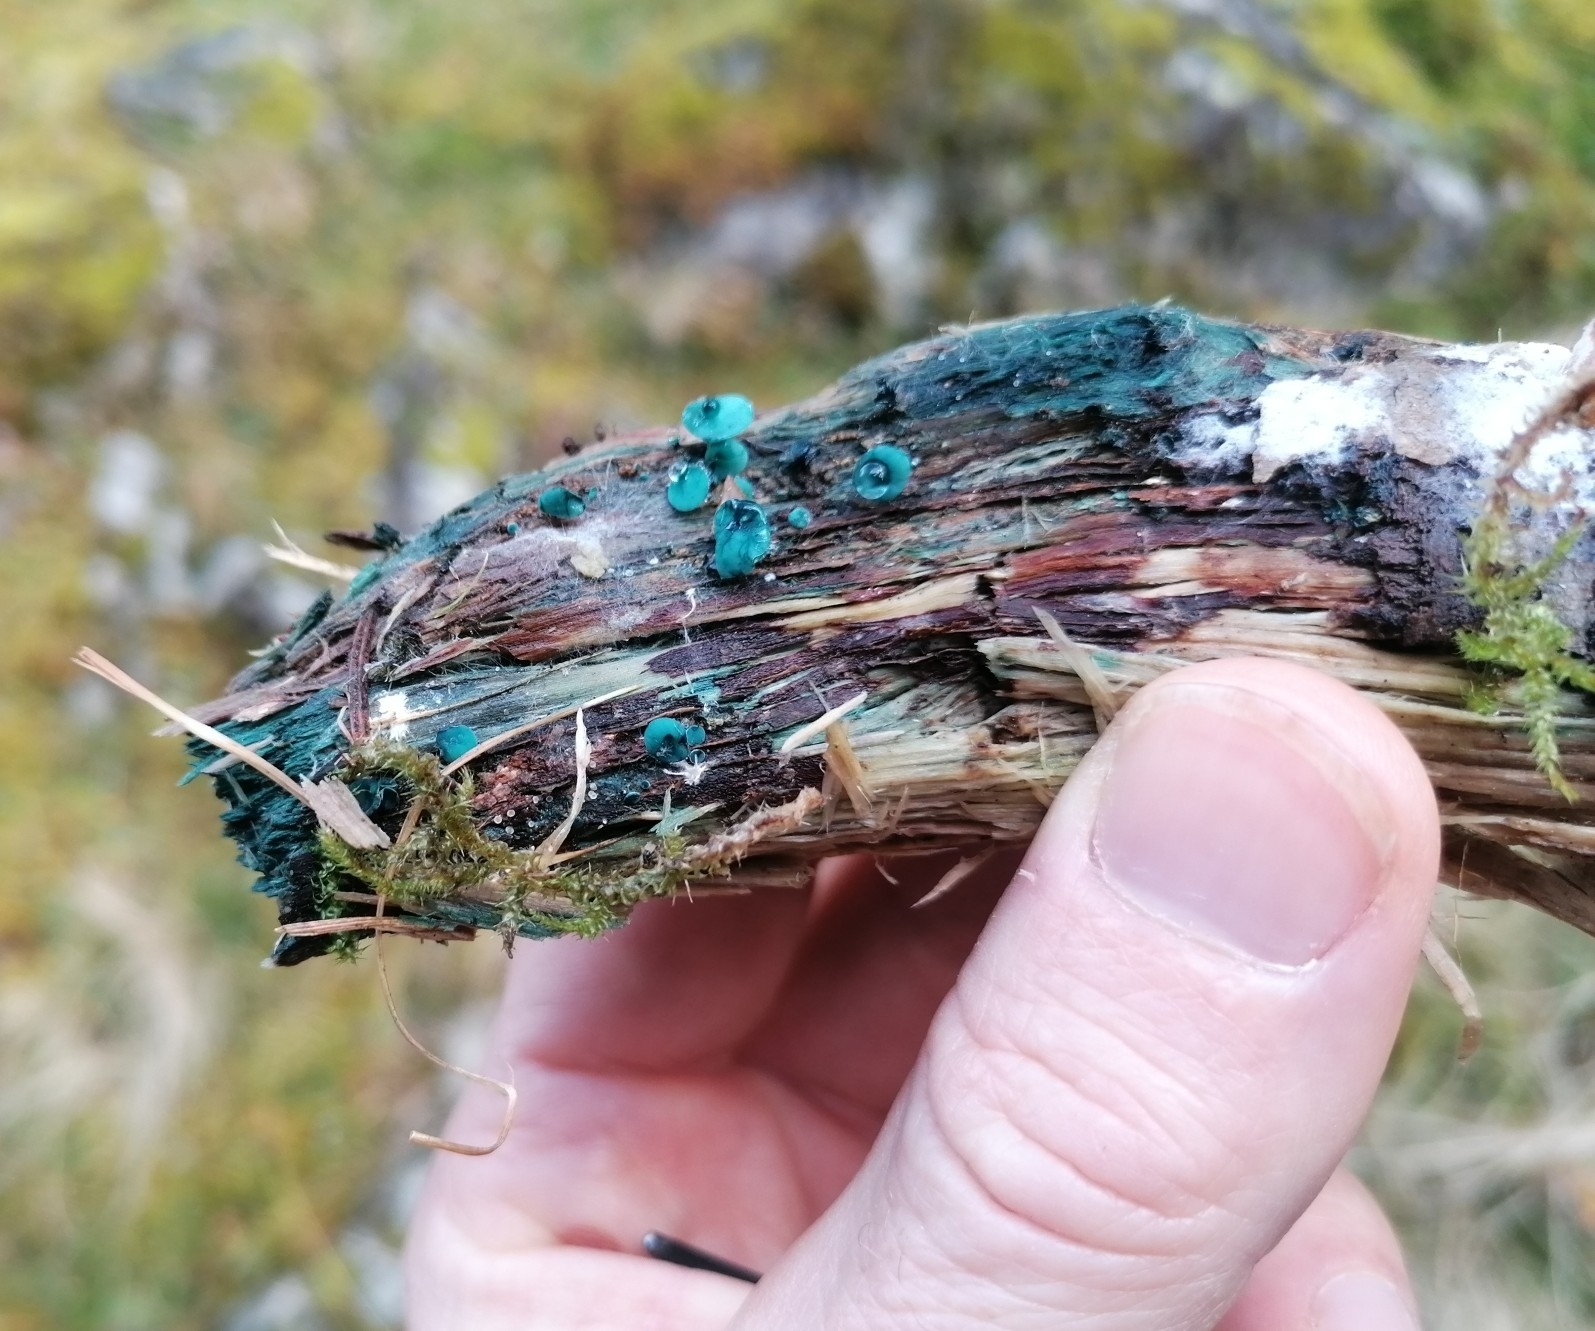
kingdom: Fungi
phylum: Ascomycota
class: Leotiomycetes
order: Helotiales
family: Chlorociboriaceae
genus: Chlorociboria
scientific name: Chlorociboria aeruginascens
